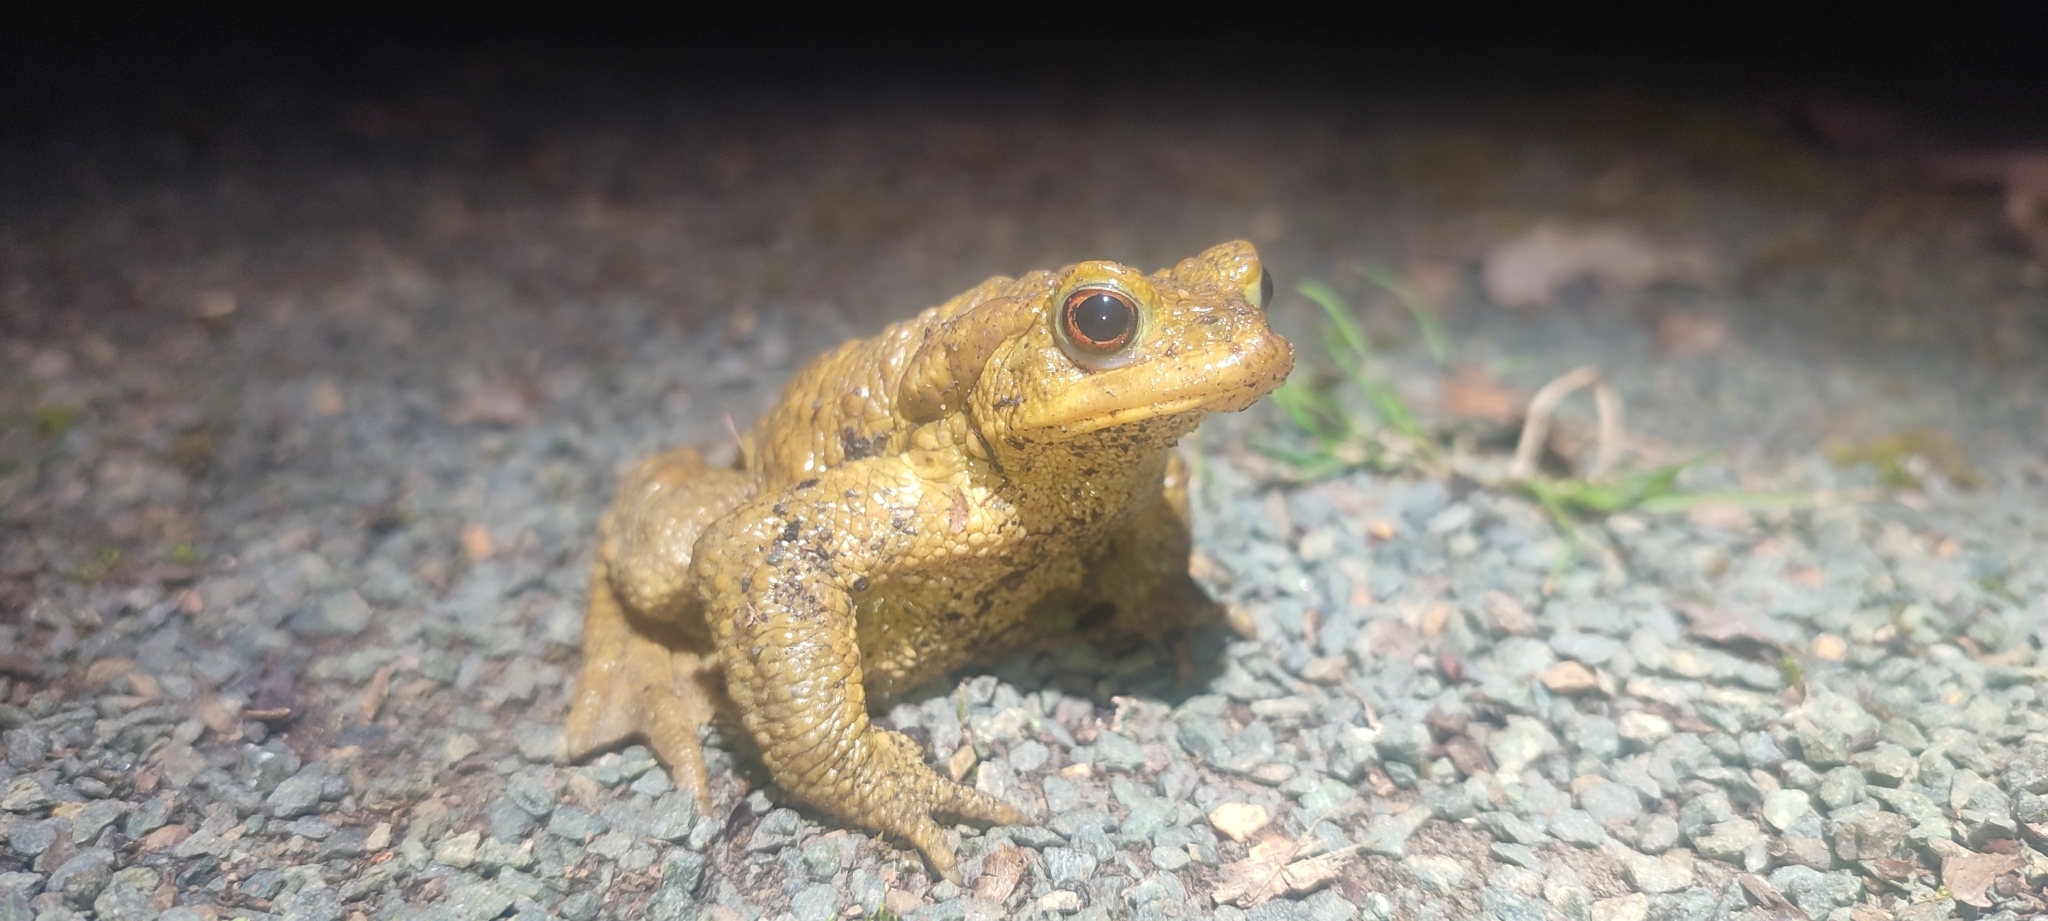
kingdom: Animalia
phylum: Chordata
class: Amphibia
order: Anura
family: Bufonidae
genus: Bufo
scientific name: Bufo spinosus
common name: Western common toad
